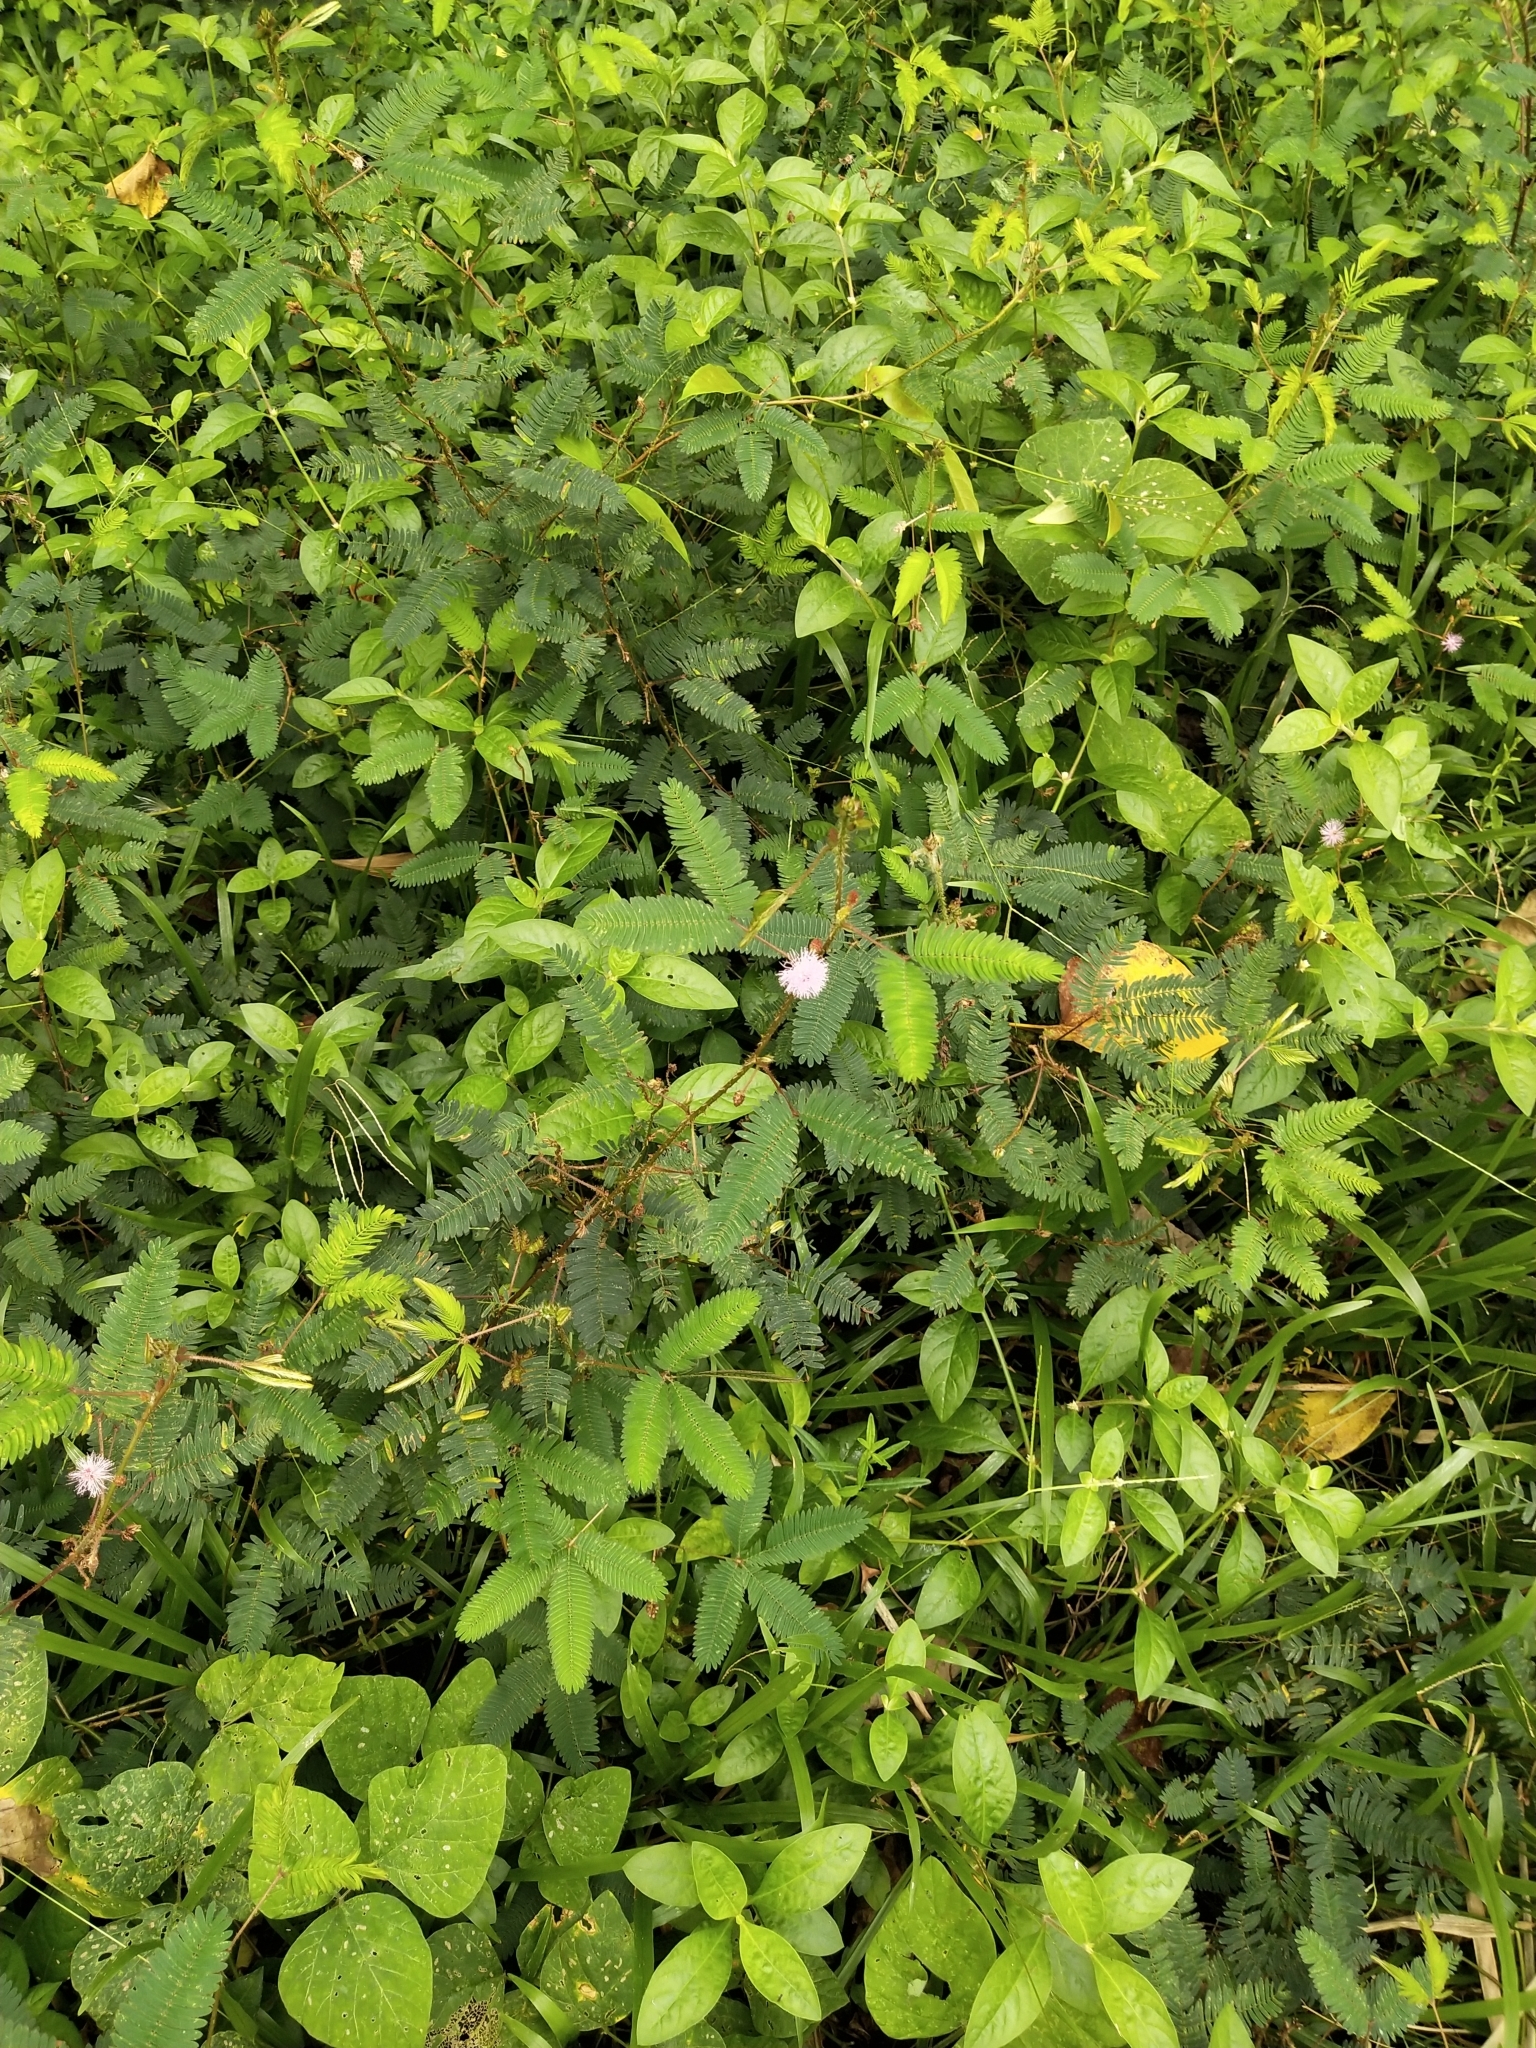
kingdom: Plantae
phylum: Tracheophyta
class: Magnoliopsida
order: Fabales
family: Fabaceae
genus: Mimosa
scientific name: Mimosa pudica
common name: Sensitive plant
